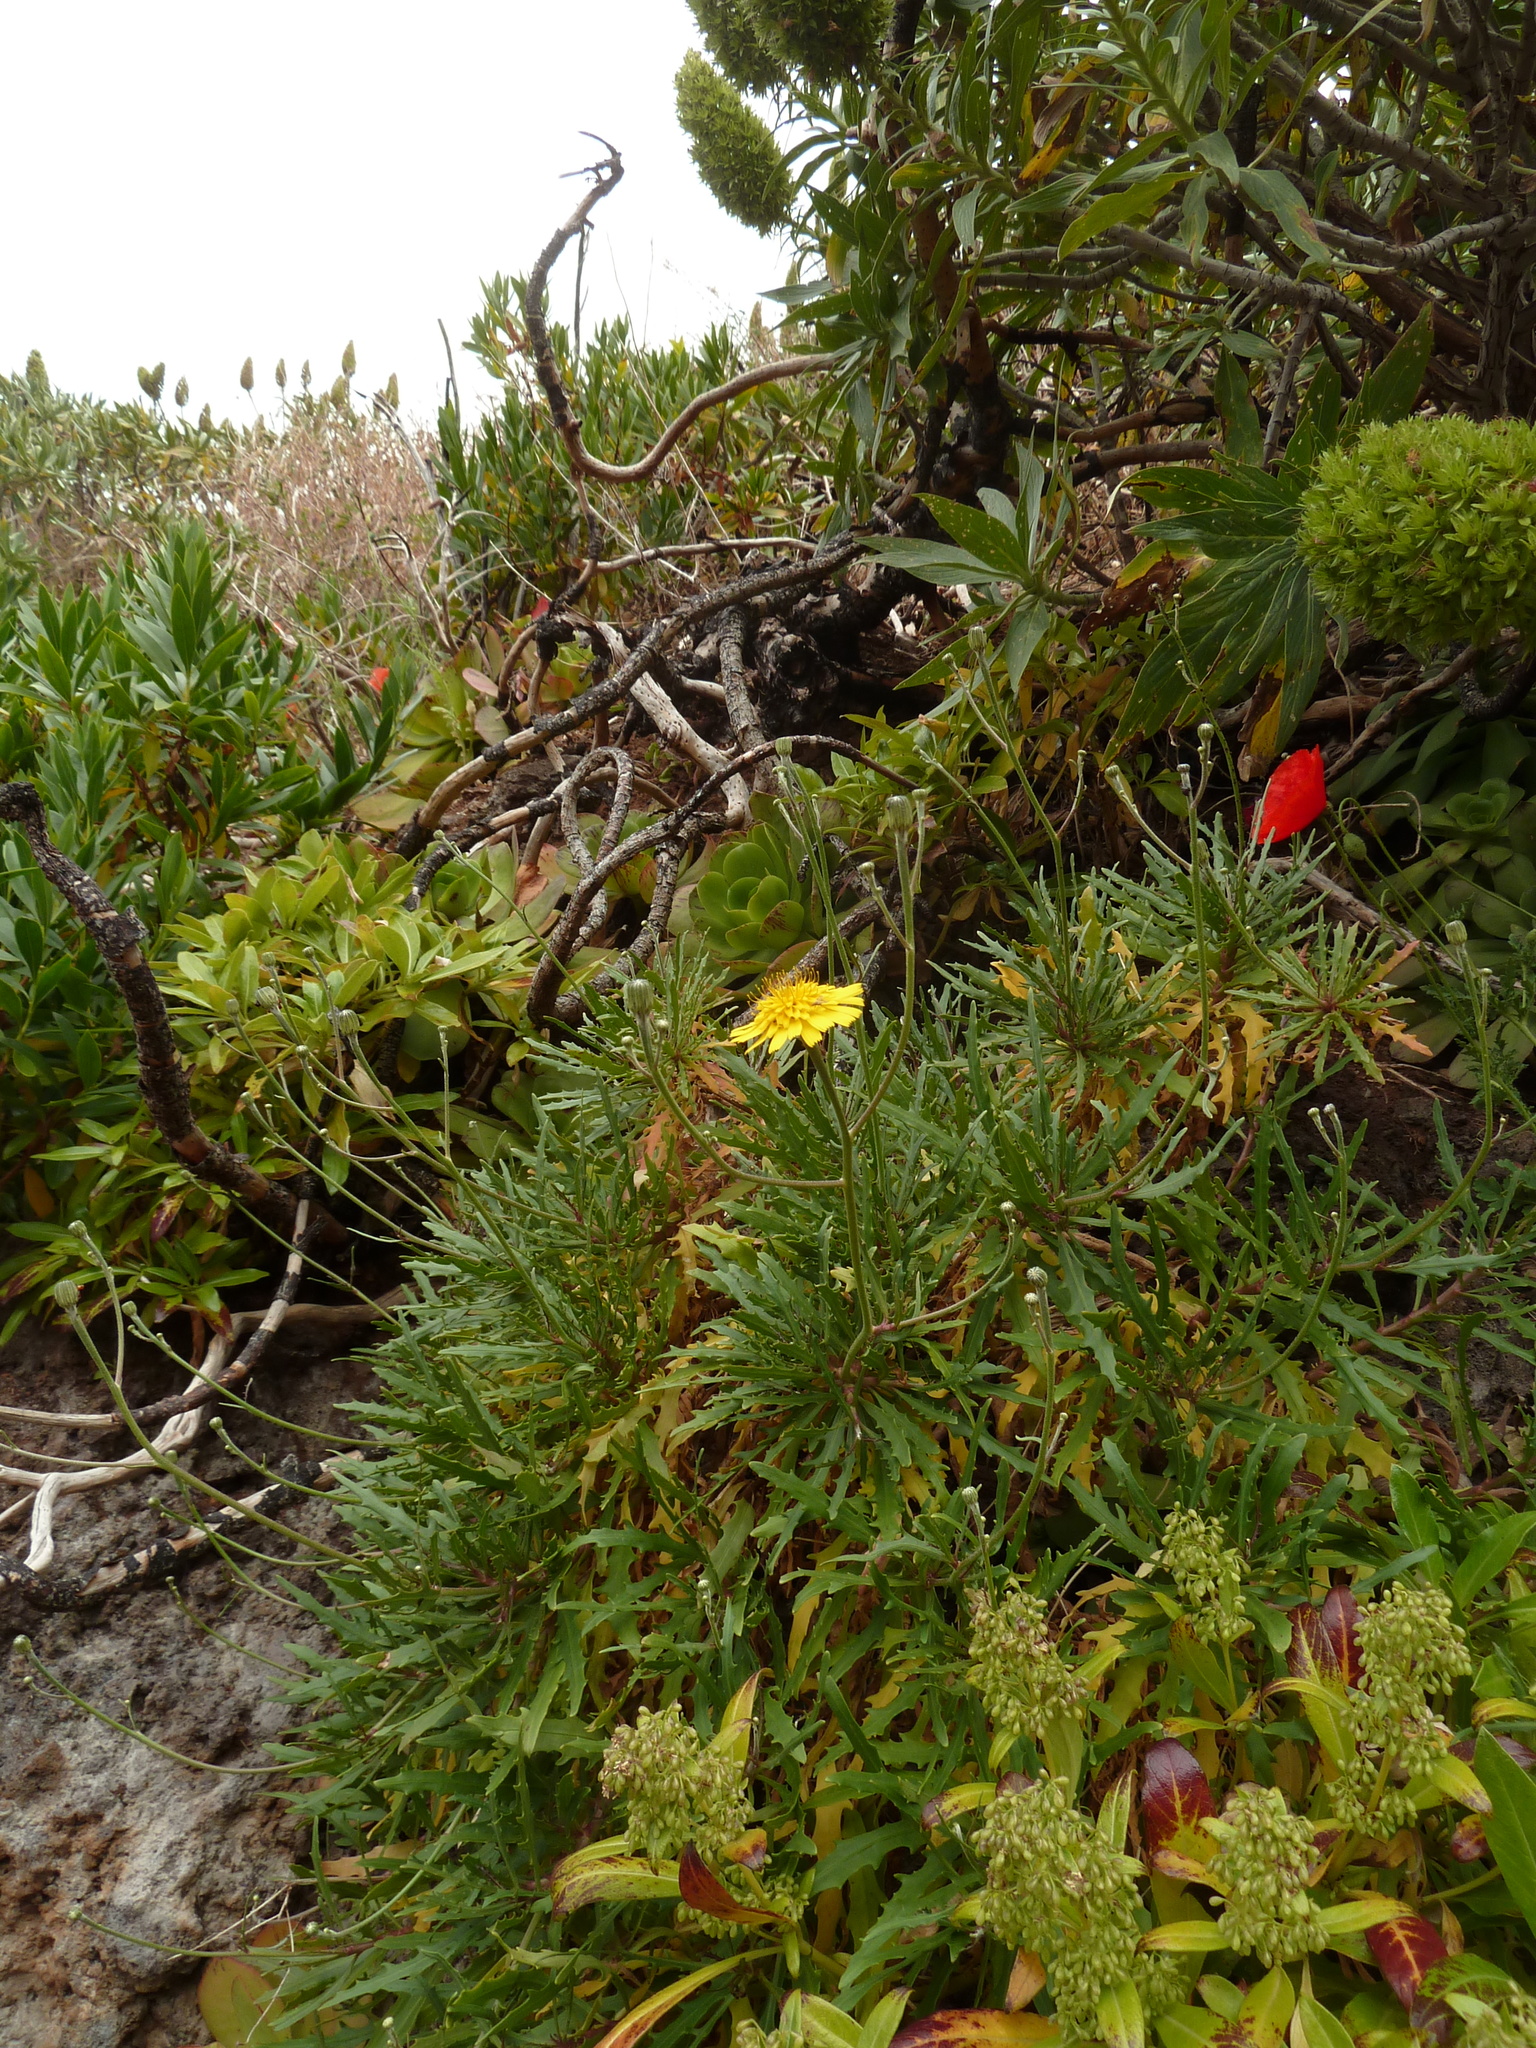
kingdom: Plantae
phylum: Tracheophyta
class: Magnoliopsida
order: Asterales
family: Asteraceae
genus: Tolpis
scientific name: Tolpis succulenta
